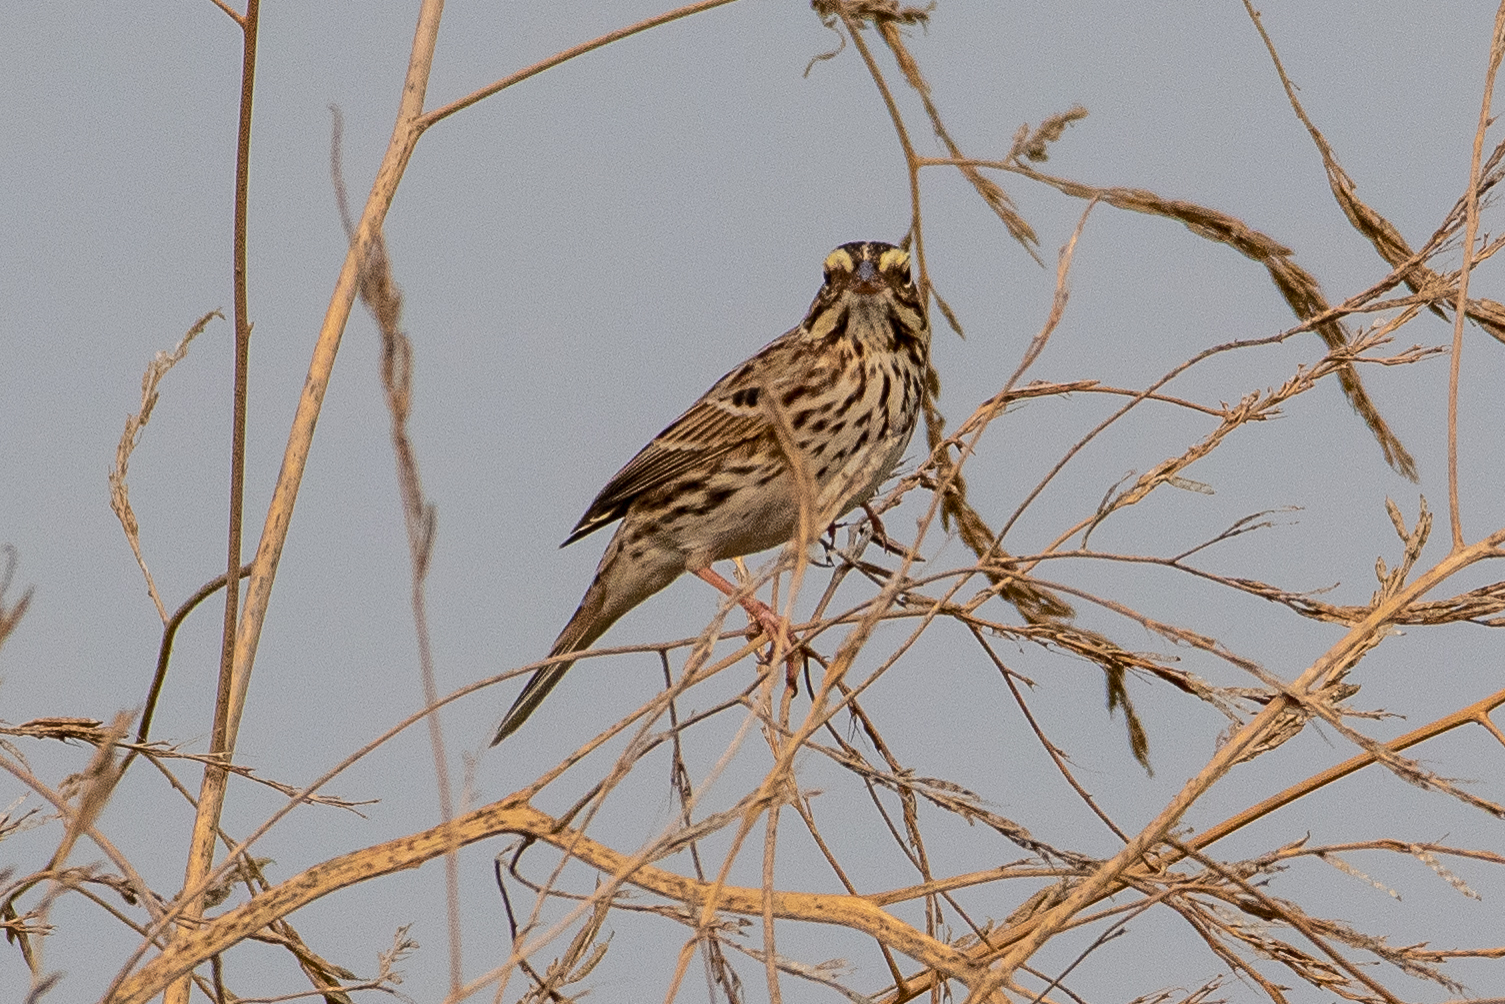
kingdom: Animalia
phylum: Chordata
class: Aves
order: Passeriformes
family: Passerellidae
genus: Passerculus
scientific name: Passerculus sandwichensis
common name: Savannah sparrow
